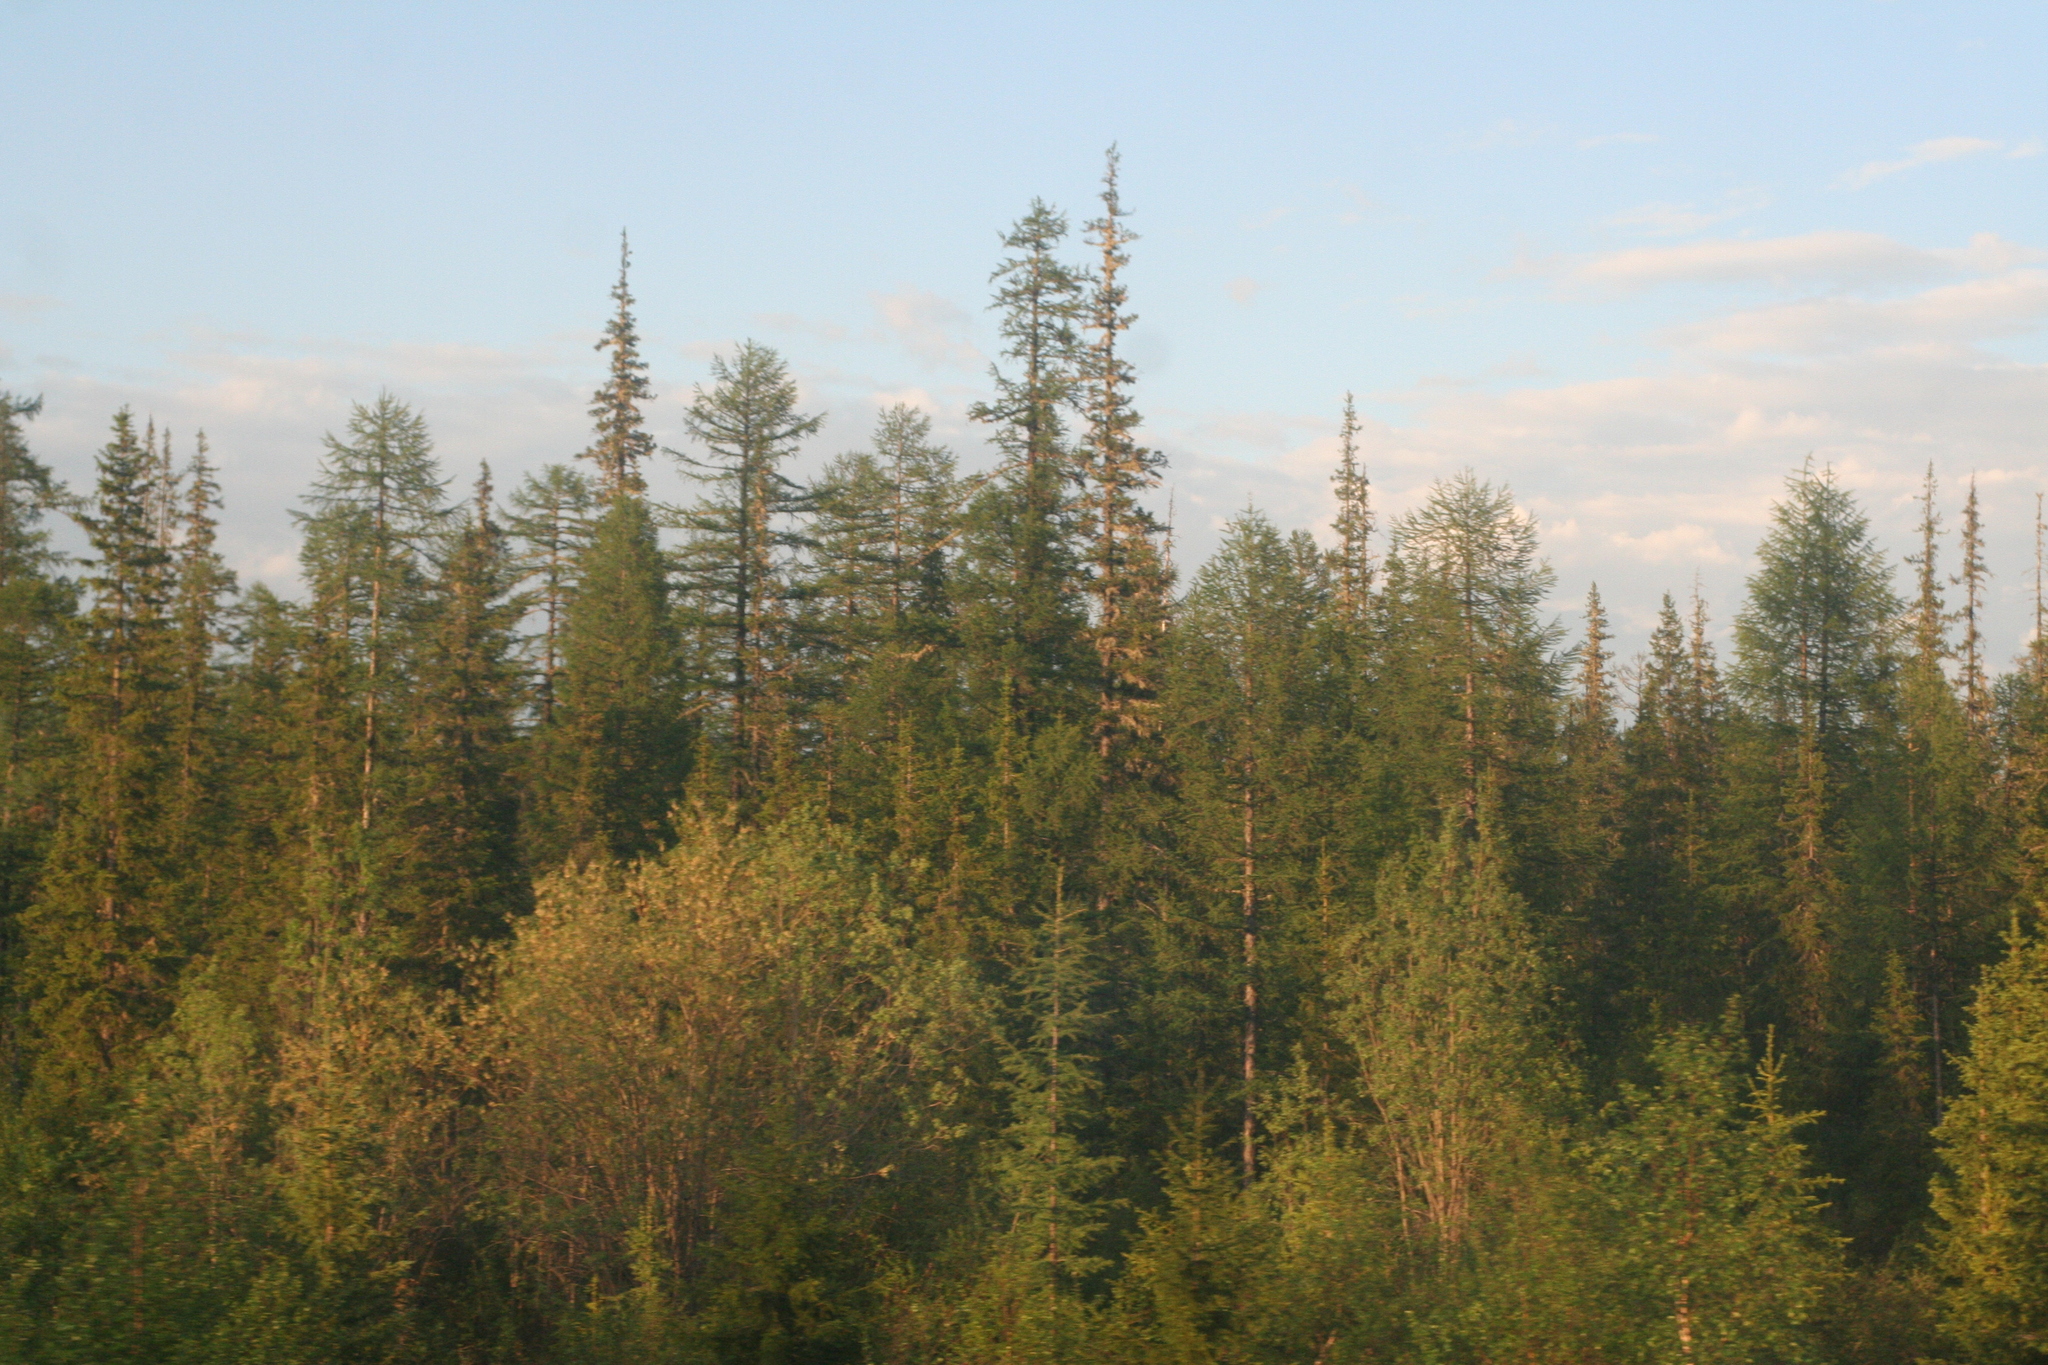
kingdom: Plantae
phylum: Tracheophyta
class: Pinopsida
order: Pinales
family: Pinaceae
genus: Larix
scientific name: Larix gmelinii
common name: Dahurian larch
